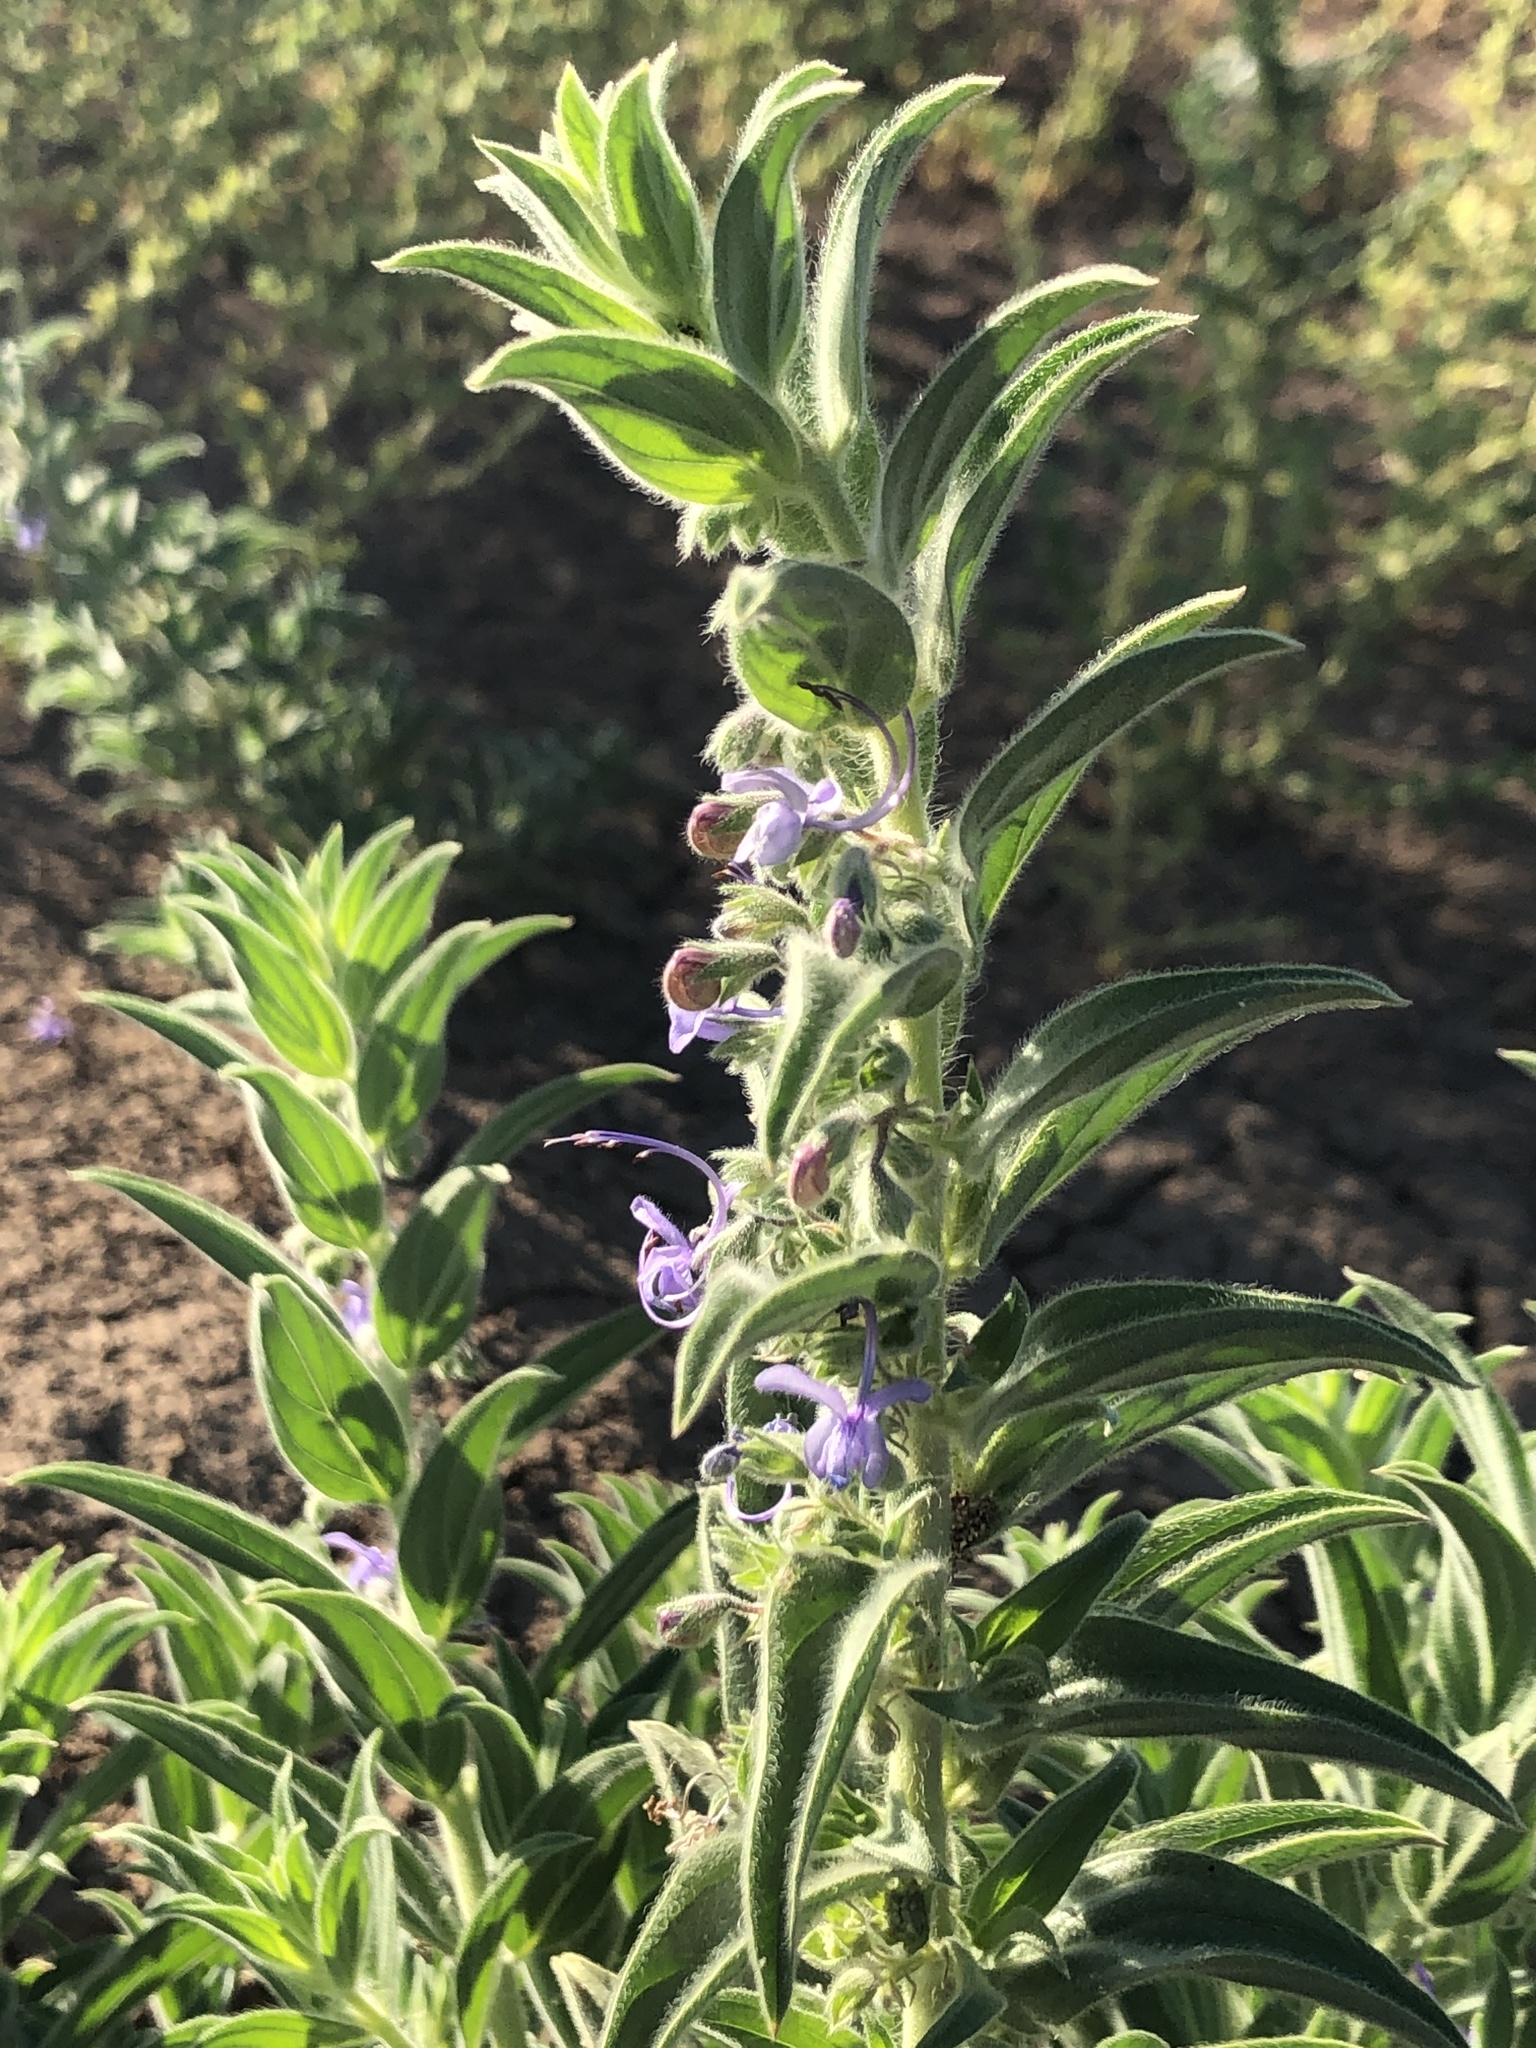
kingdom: Plantae
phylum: Tracheophyta
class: Magnoliopsida
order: Lamiales
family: Lamiaceae
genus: Trichostema
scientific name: Trichostema lanceolatum
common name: Vinegar-weed
